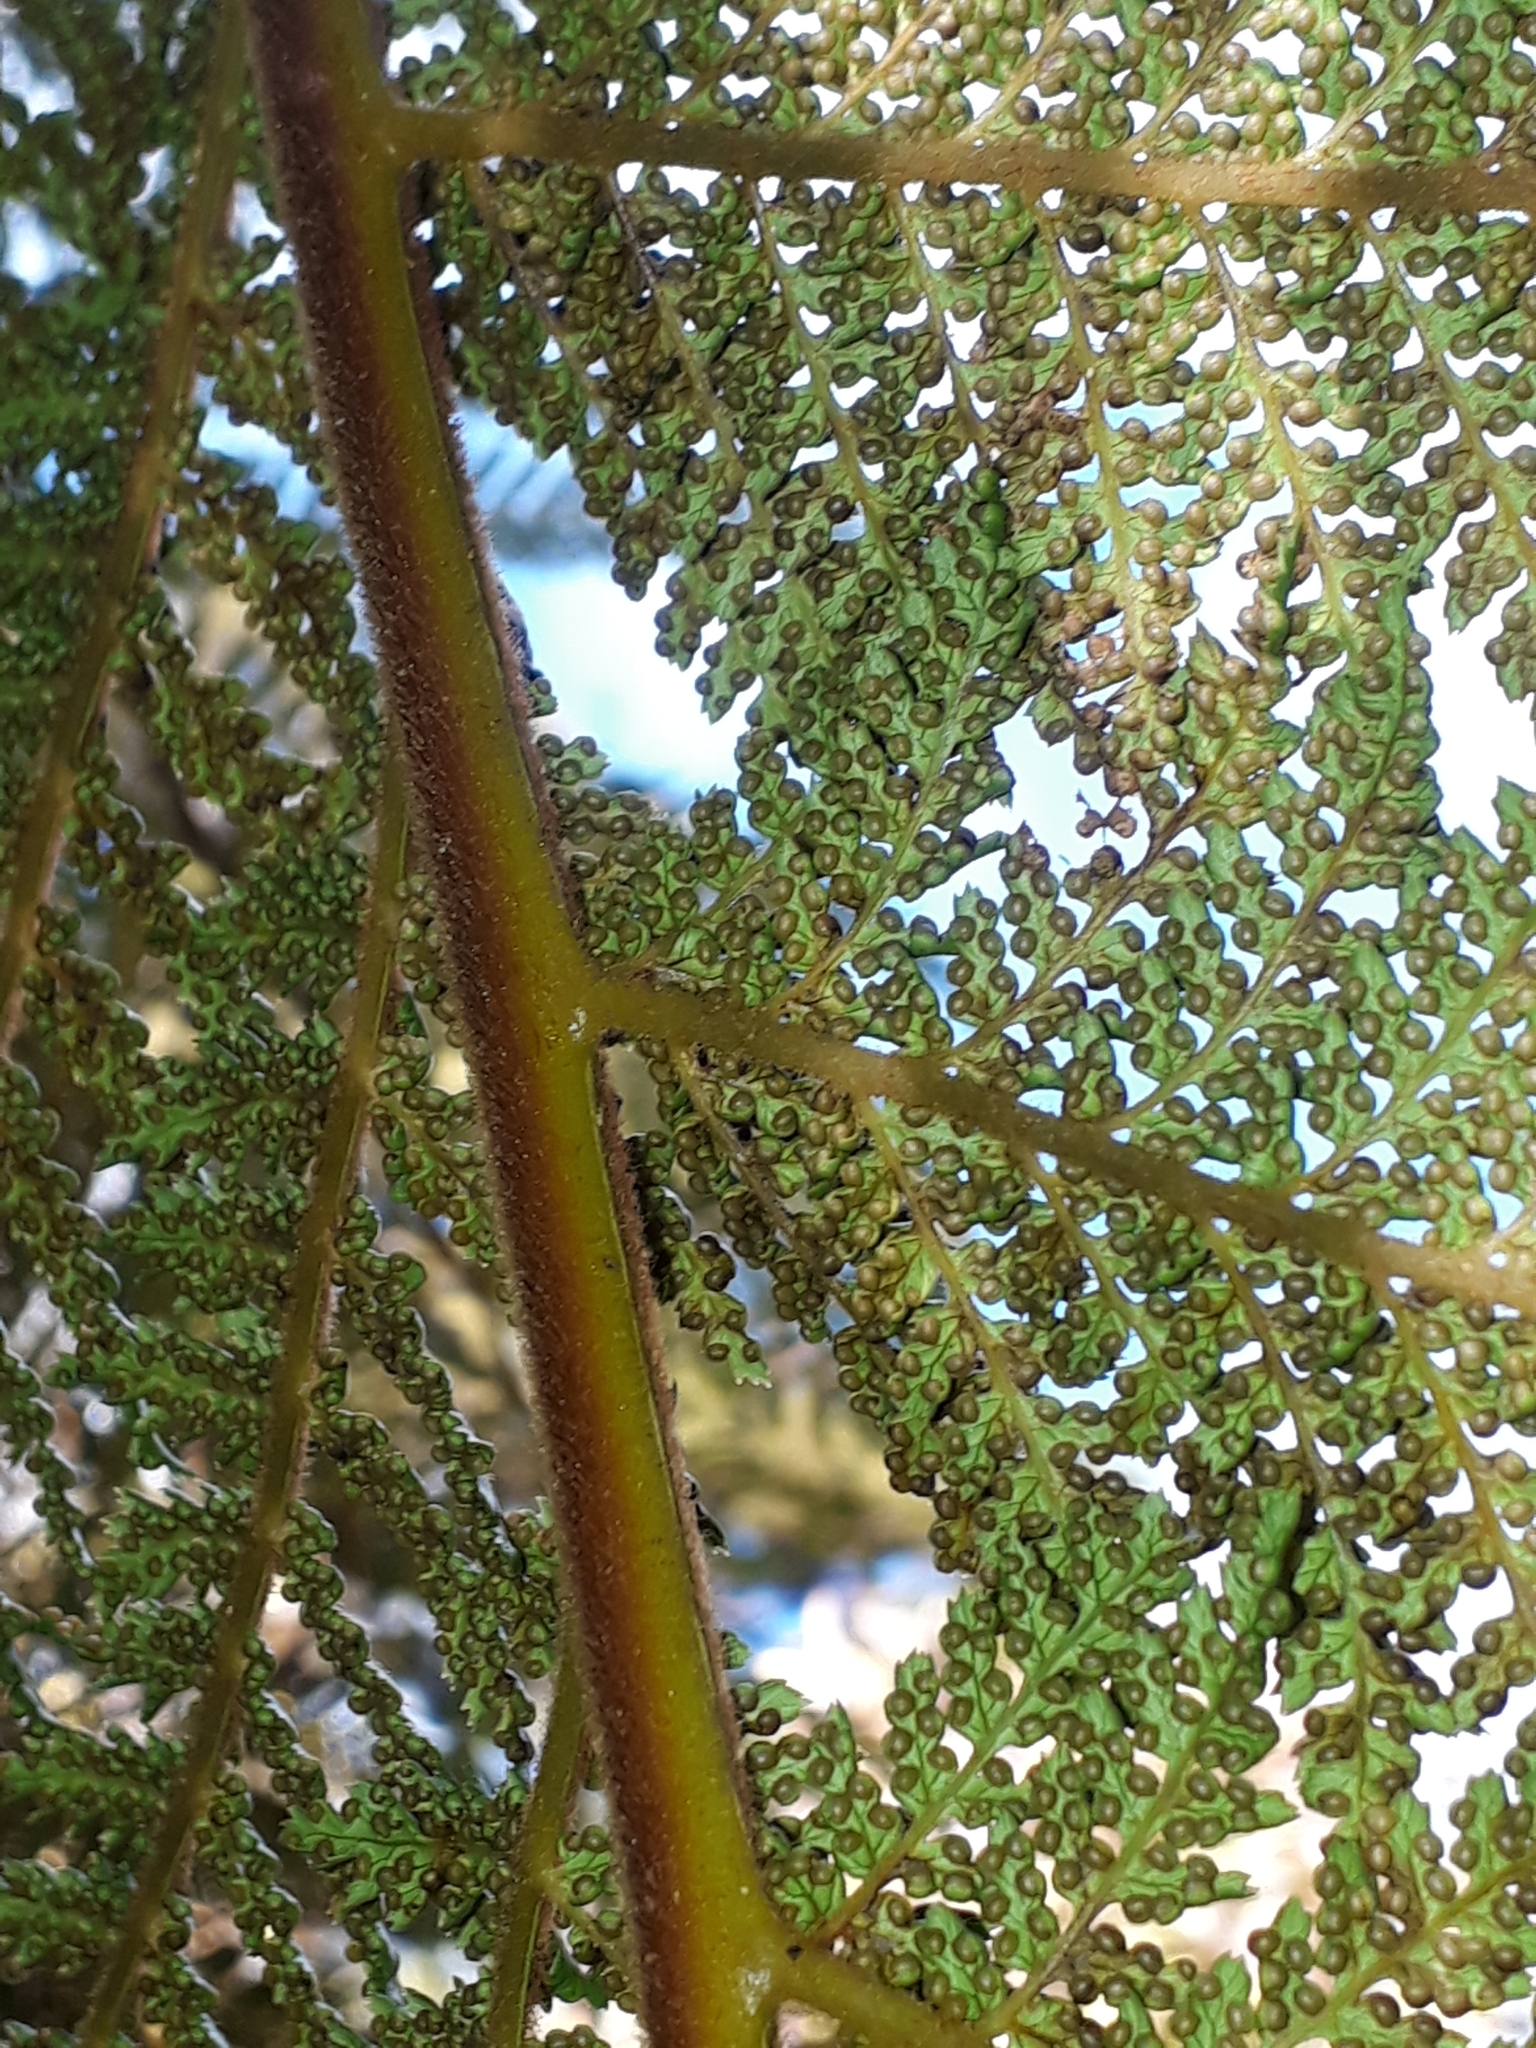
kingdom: Plantae
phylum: Tracheophyta
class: Polypodiopsida
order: Cyatheales
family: Dicksoniaceae
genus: Dicksonia
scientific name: Dicksonia fibrosa
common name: Golden tree fern
